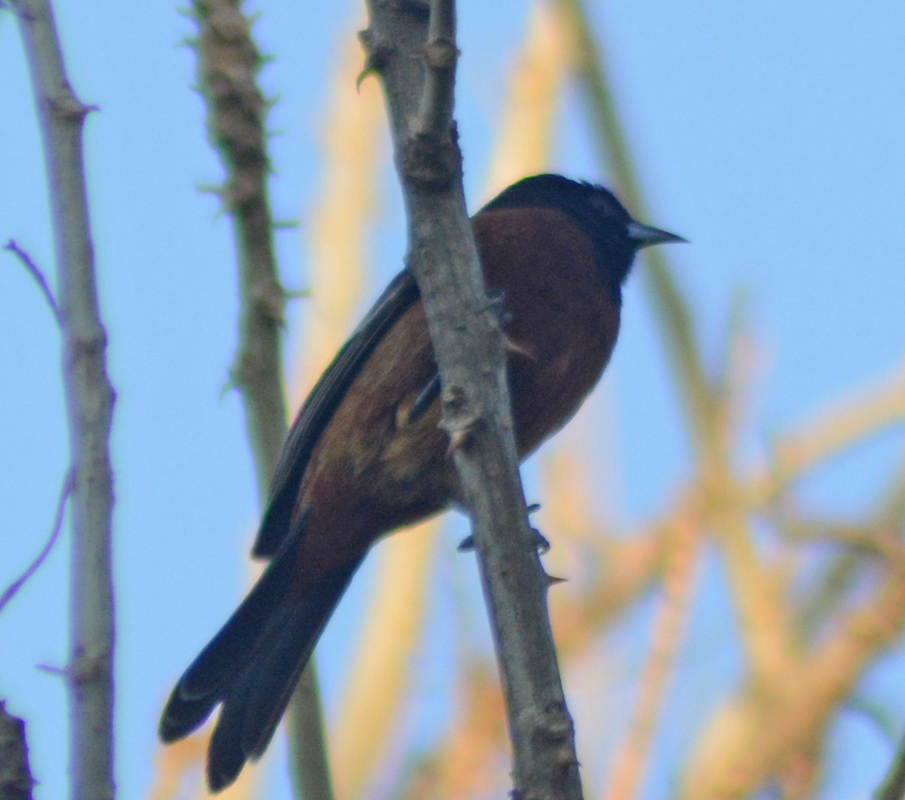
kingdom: Animalia
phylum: Chordata
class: Aves
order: Passeriformes
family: Icteridae
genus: Icterus
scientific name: Icterus spurius
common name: Orchard oriole
